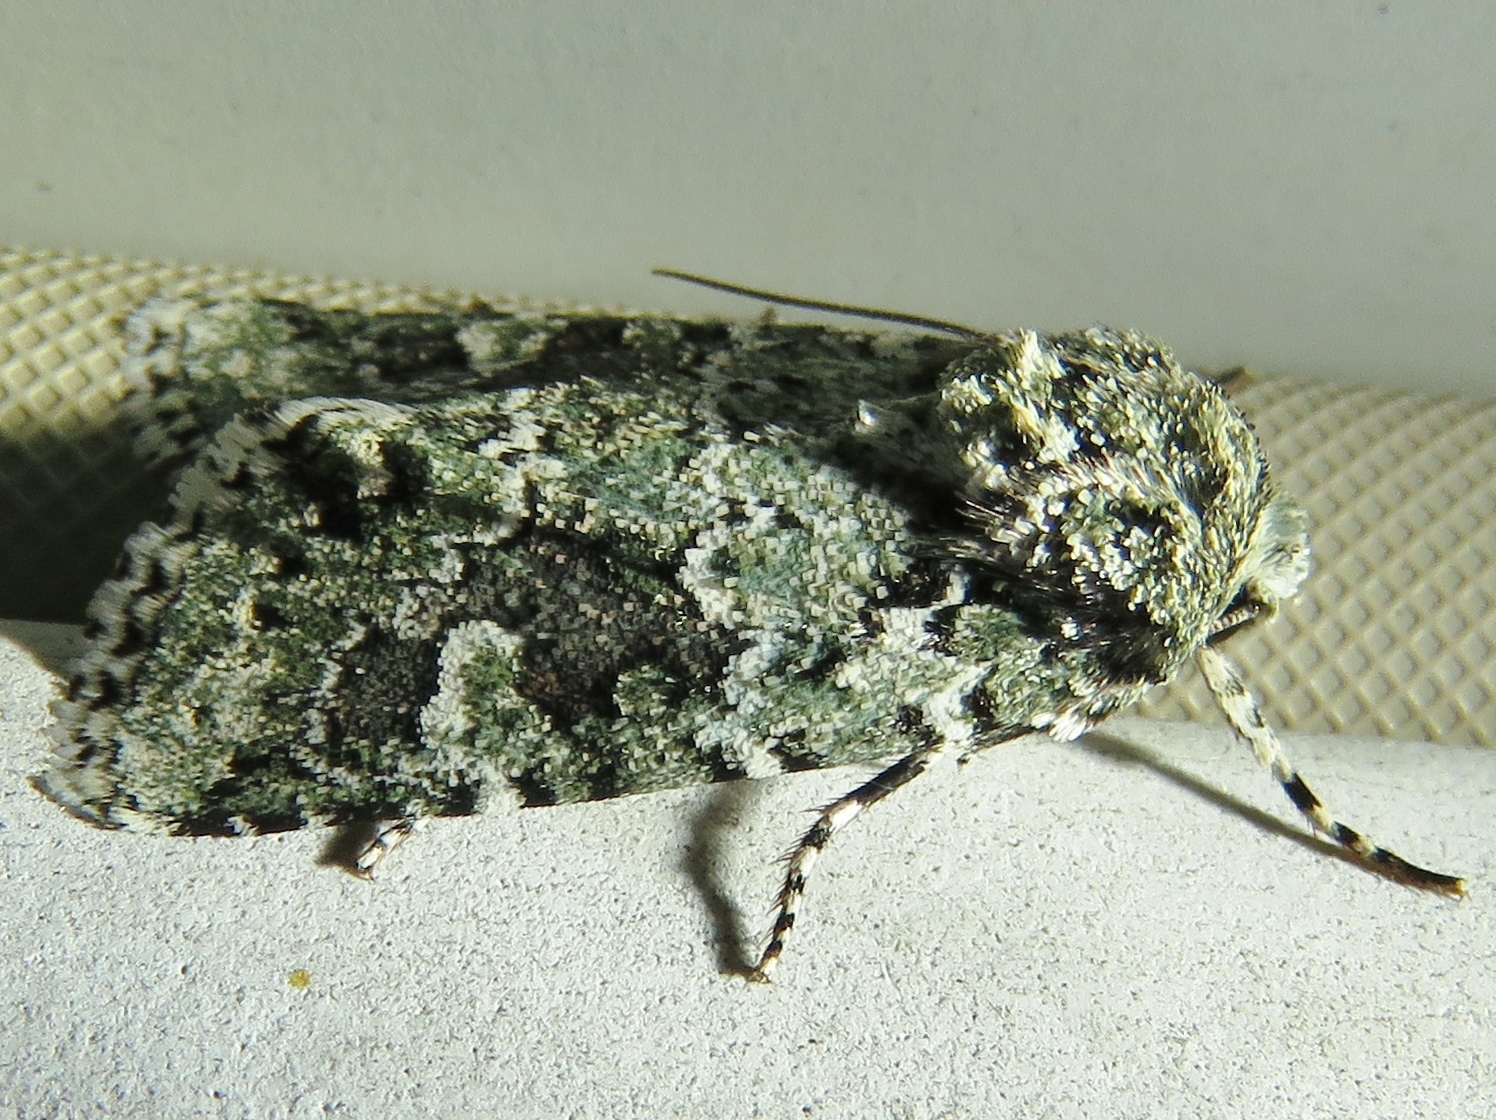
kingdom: Animalia
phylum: Arthropoda
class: Insecta
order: Lepidoptera
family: Noctuidae
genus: Lacinipolia
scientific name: Lacinipolia laudabilis
